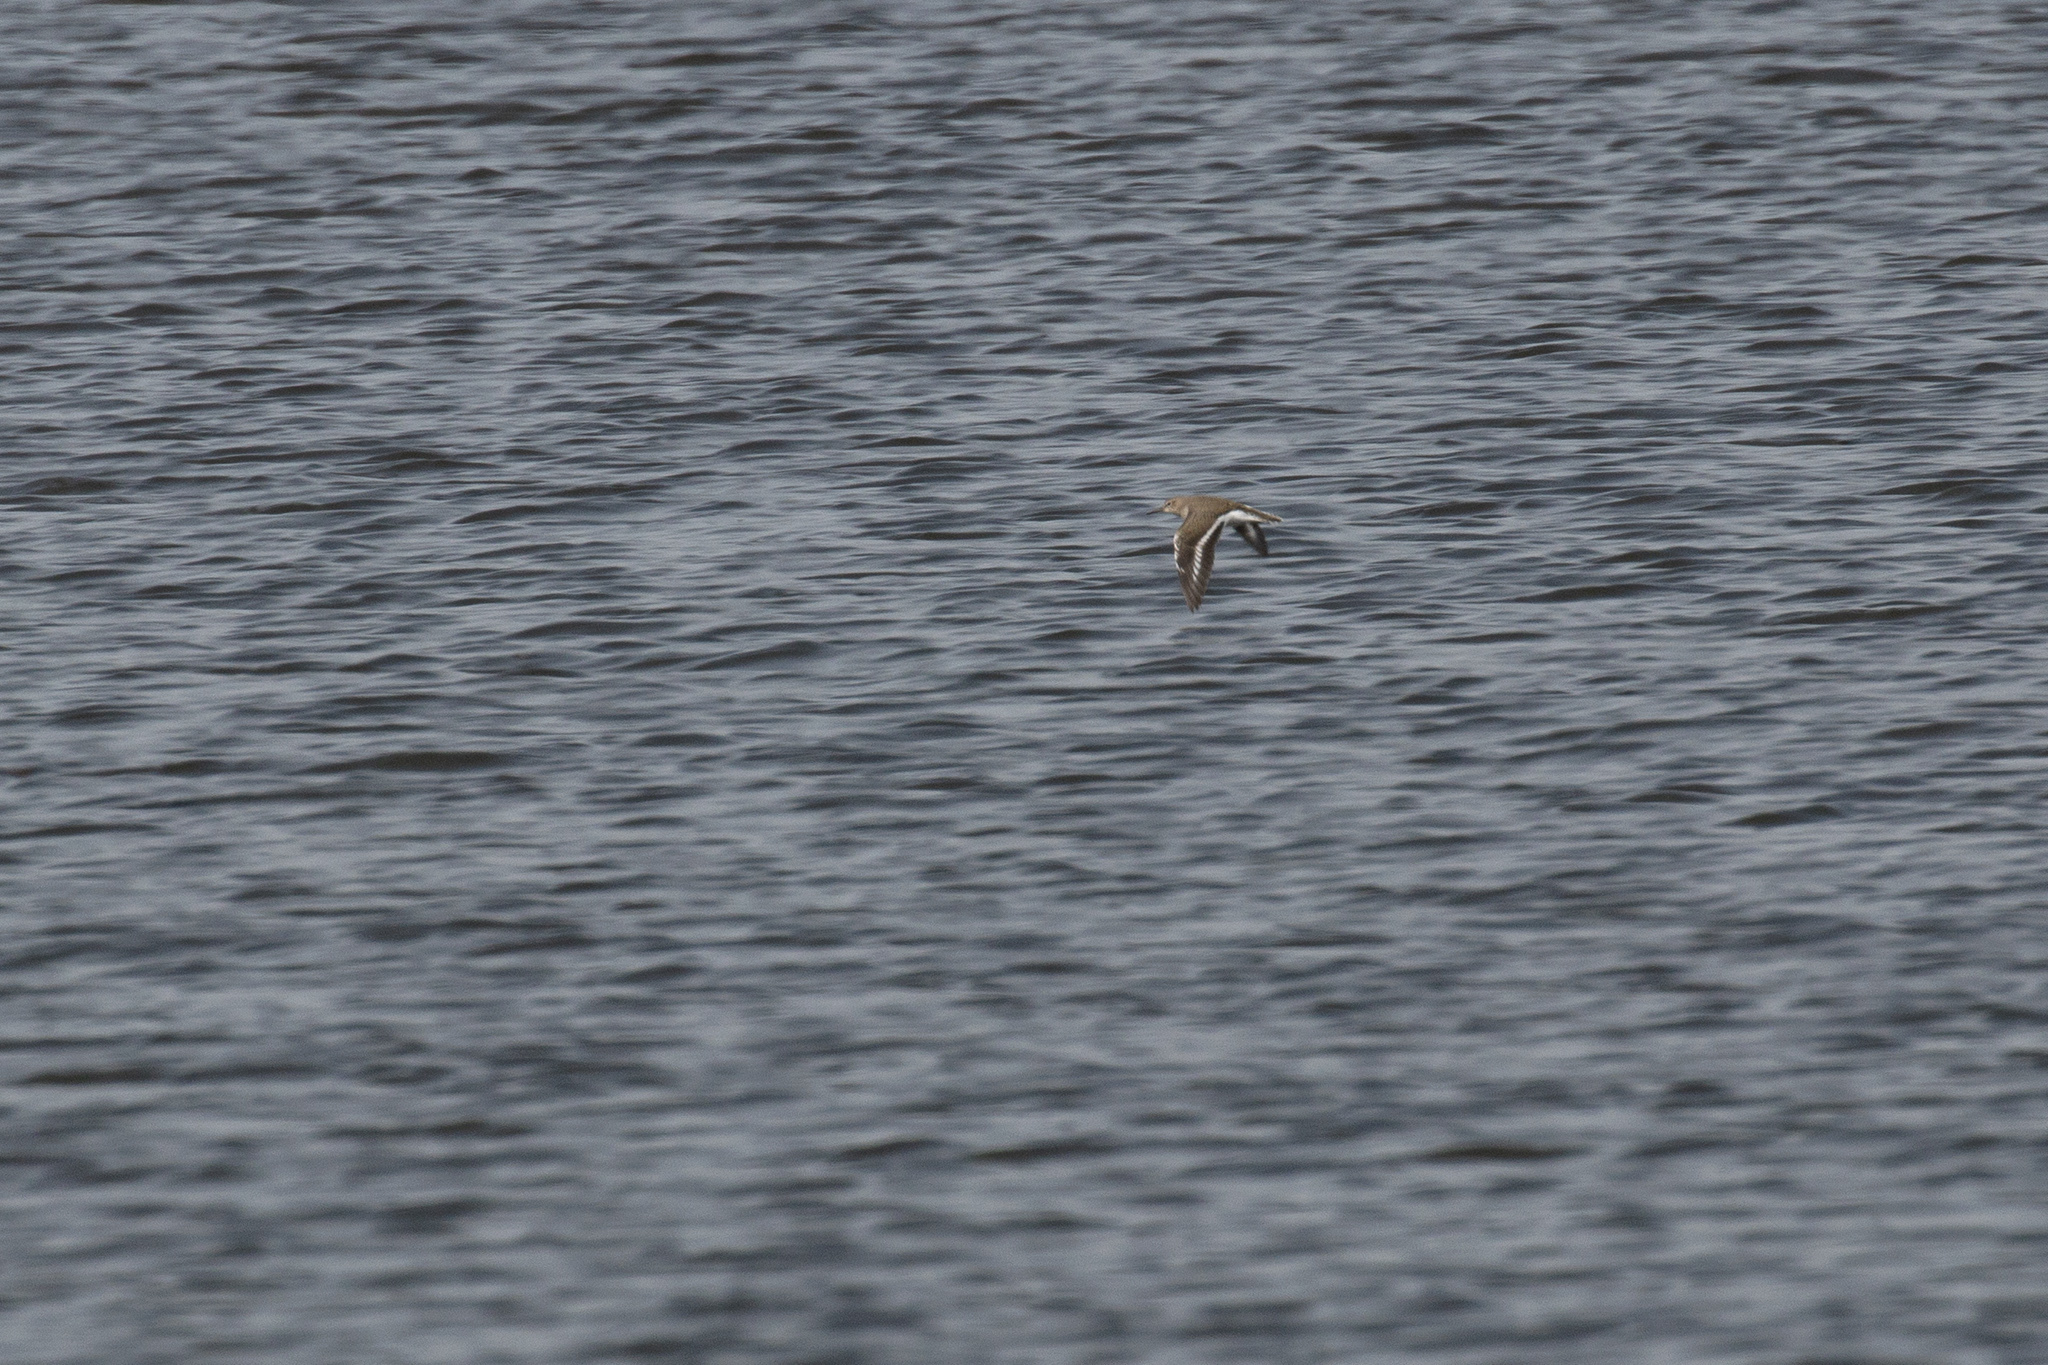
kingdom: Animalia
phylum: Chordata
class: Aves
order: Charadriiformes
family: Scolopacidae
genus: Actitis
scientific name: Actitis hypoleucos
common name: Common sandpiper
